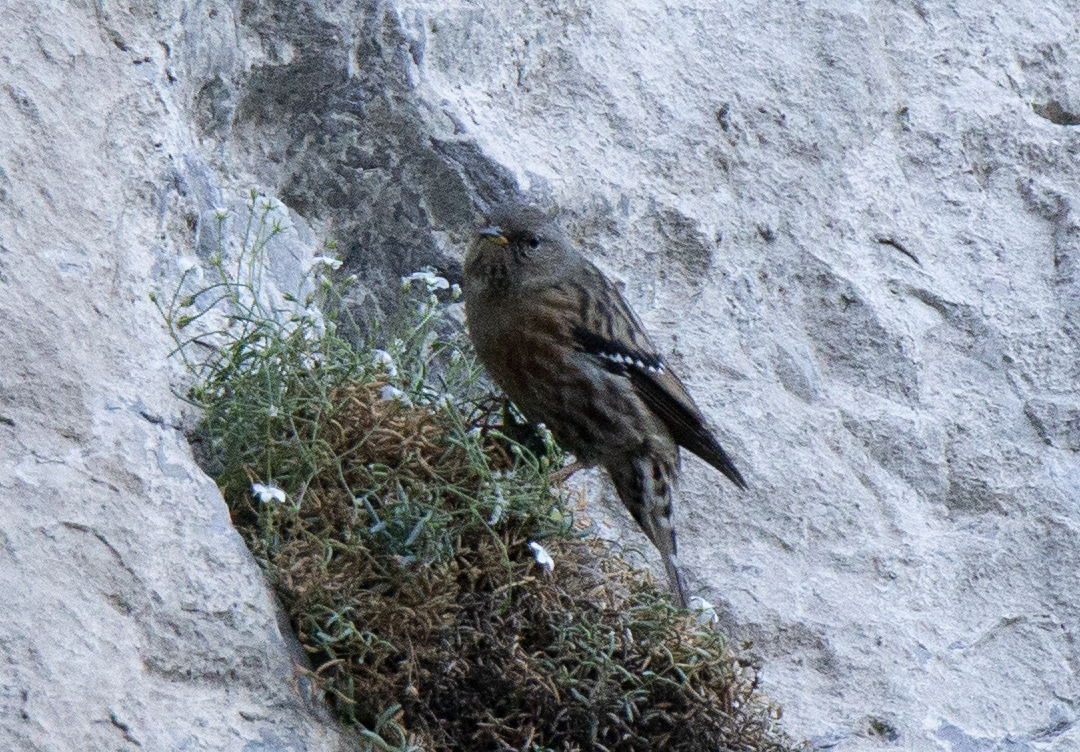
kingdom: Animalia
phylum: Chordata
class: Aves
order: Passeriformes
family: Prunellidae
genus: Prunella
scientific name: Prunella collaris
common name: Alpine accentor
